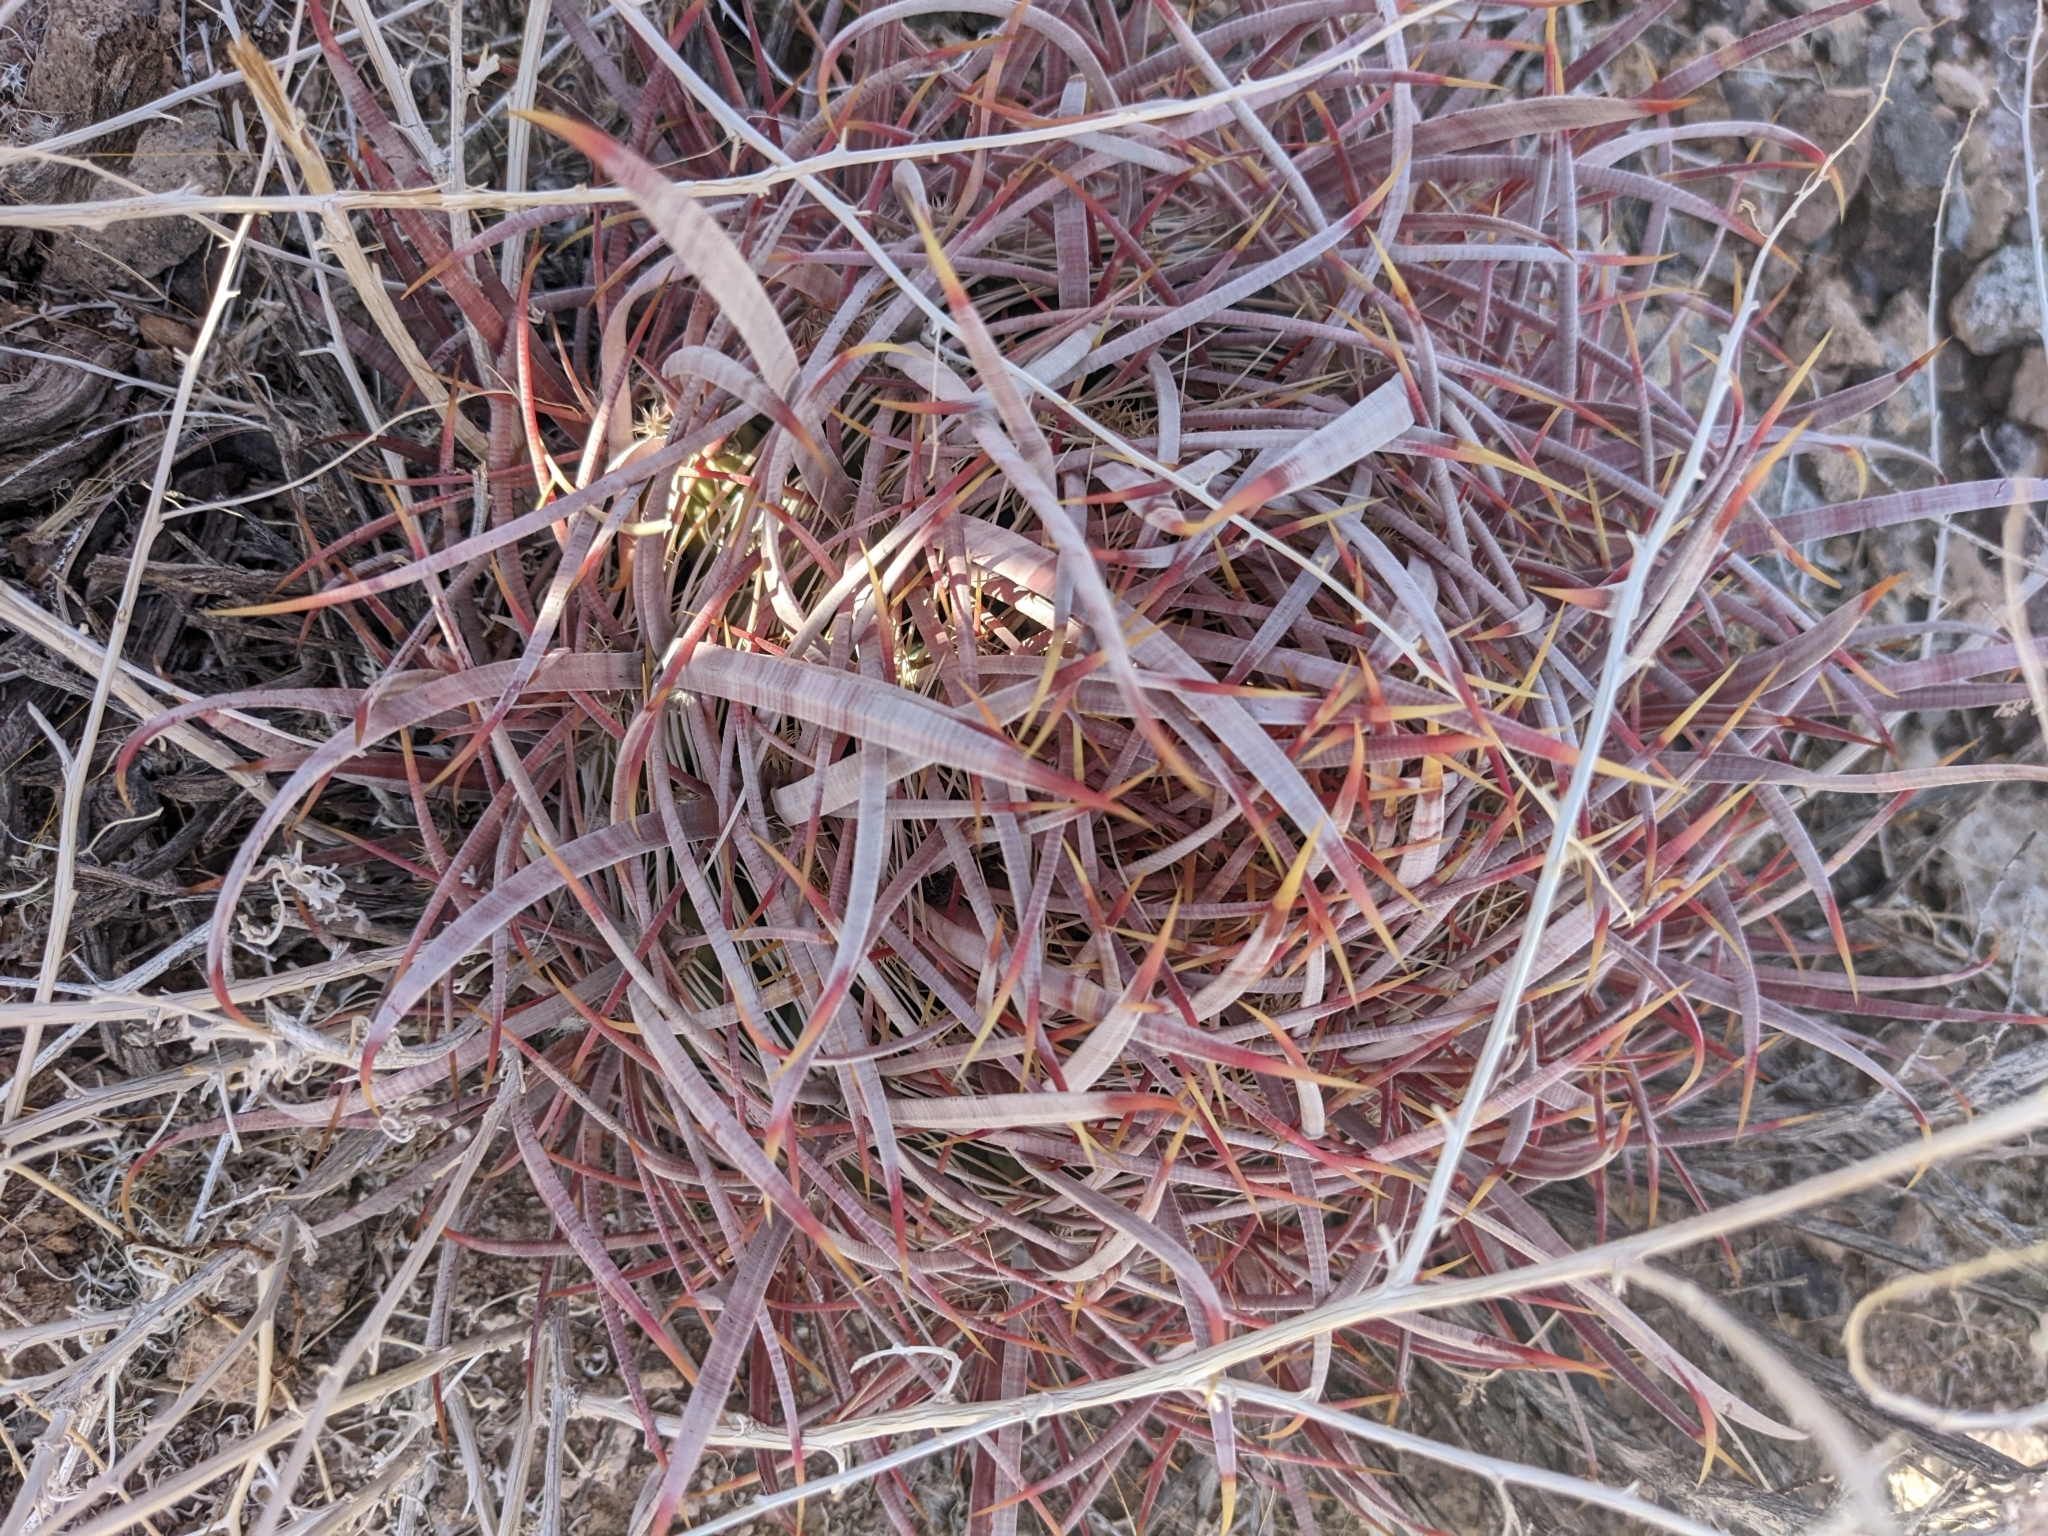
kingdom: Plantae
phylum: Tracheophyta
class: Magnoliopsida
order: Caryophyllales
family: Cactaceae
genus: Ferocactus
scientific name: Ferocactus cylindraceus
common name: California barrel cactus
